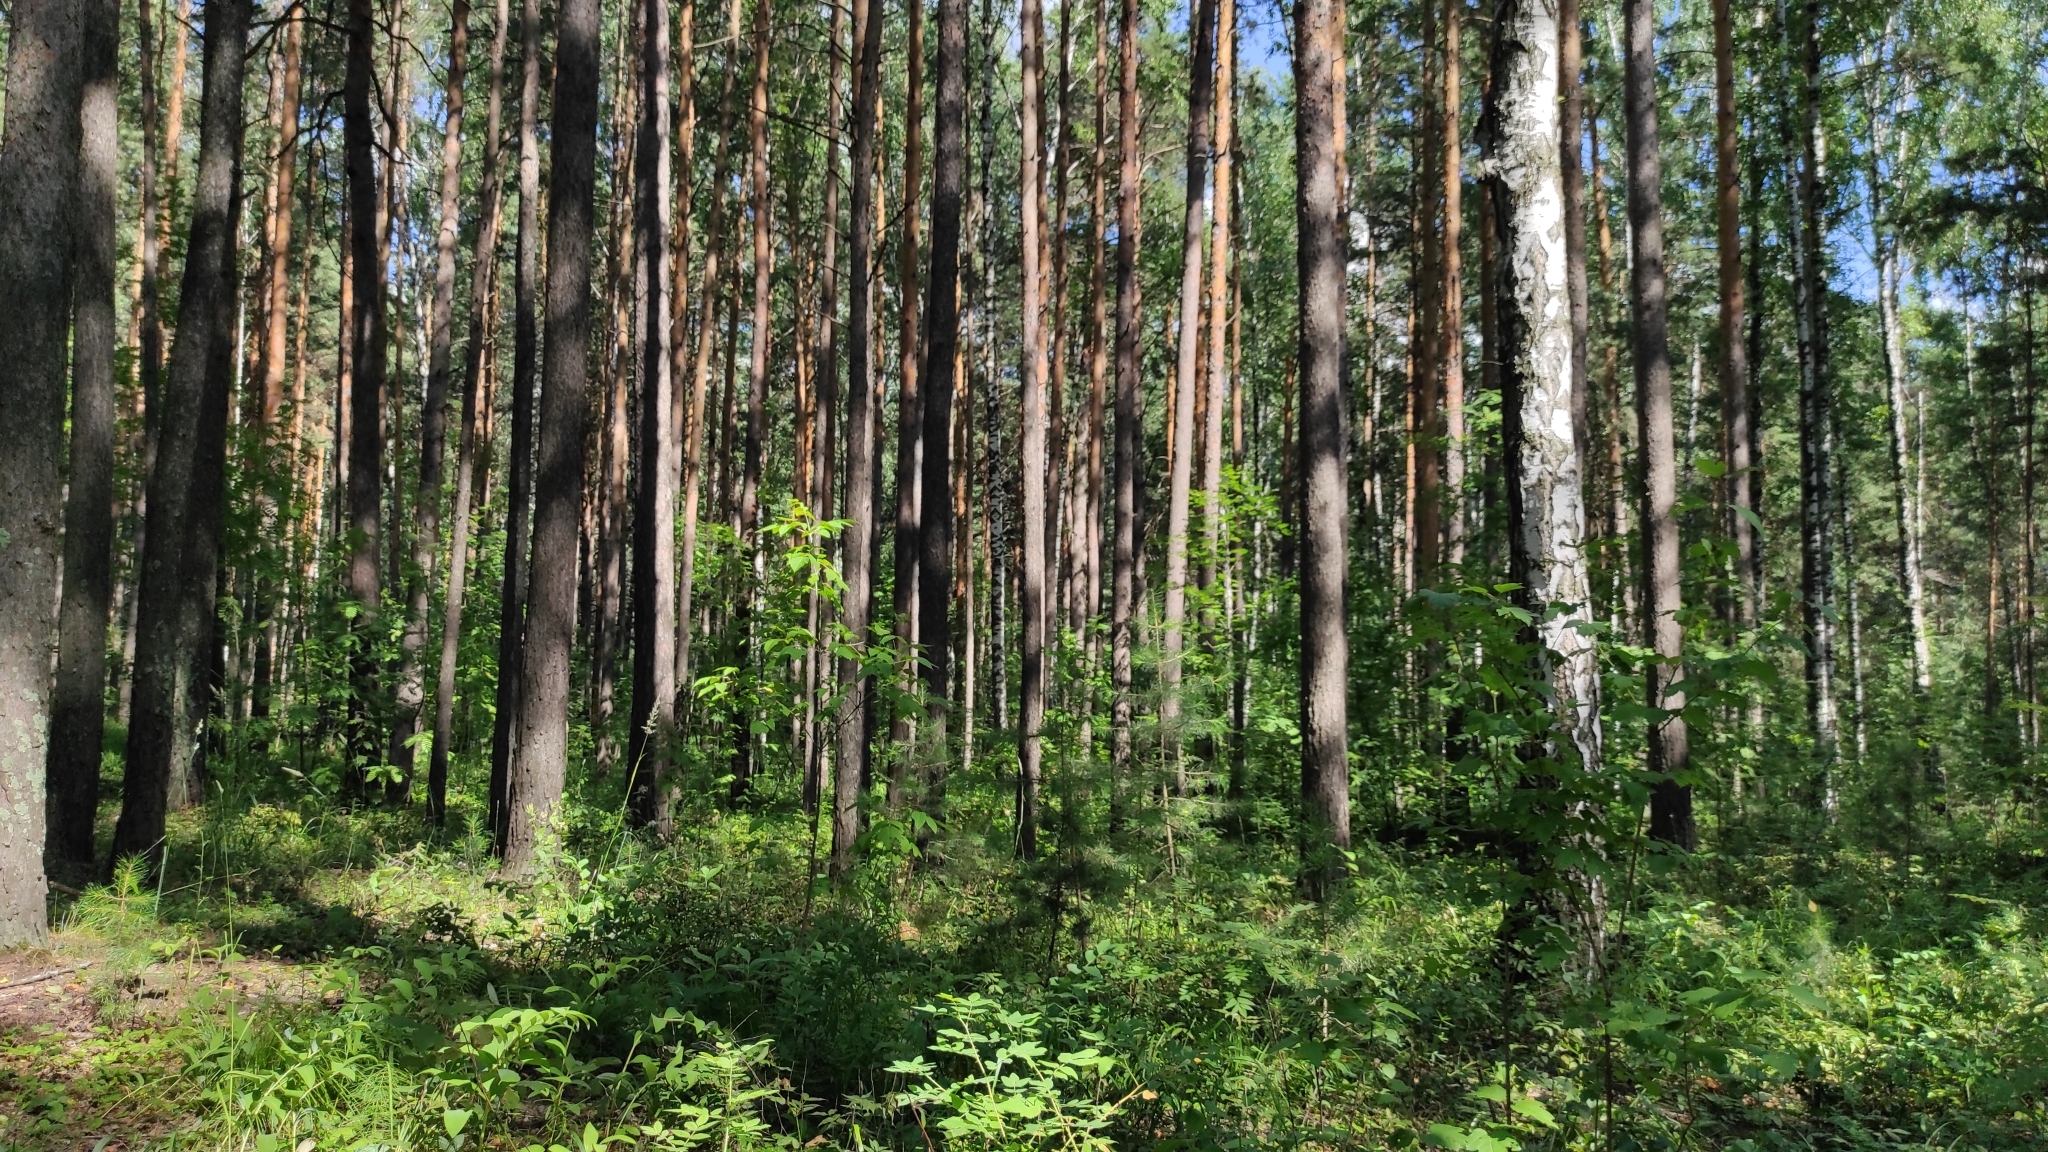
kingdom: Plantae
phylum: Tracheophyta
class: Pinopsida
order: Pinales
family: Pinaceae
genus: Pinus
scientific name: Pinus sylvestris
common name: Scots pine
